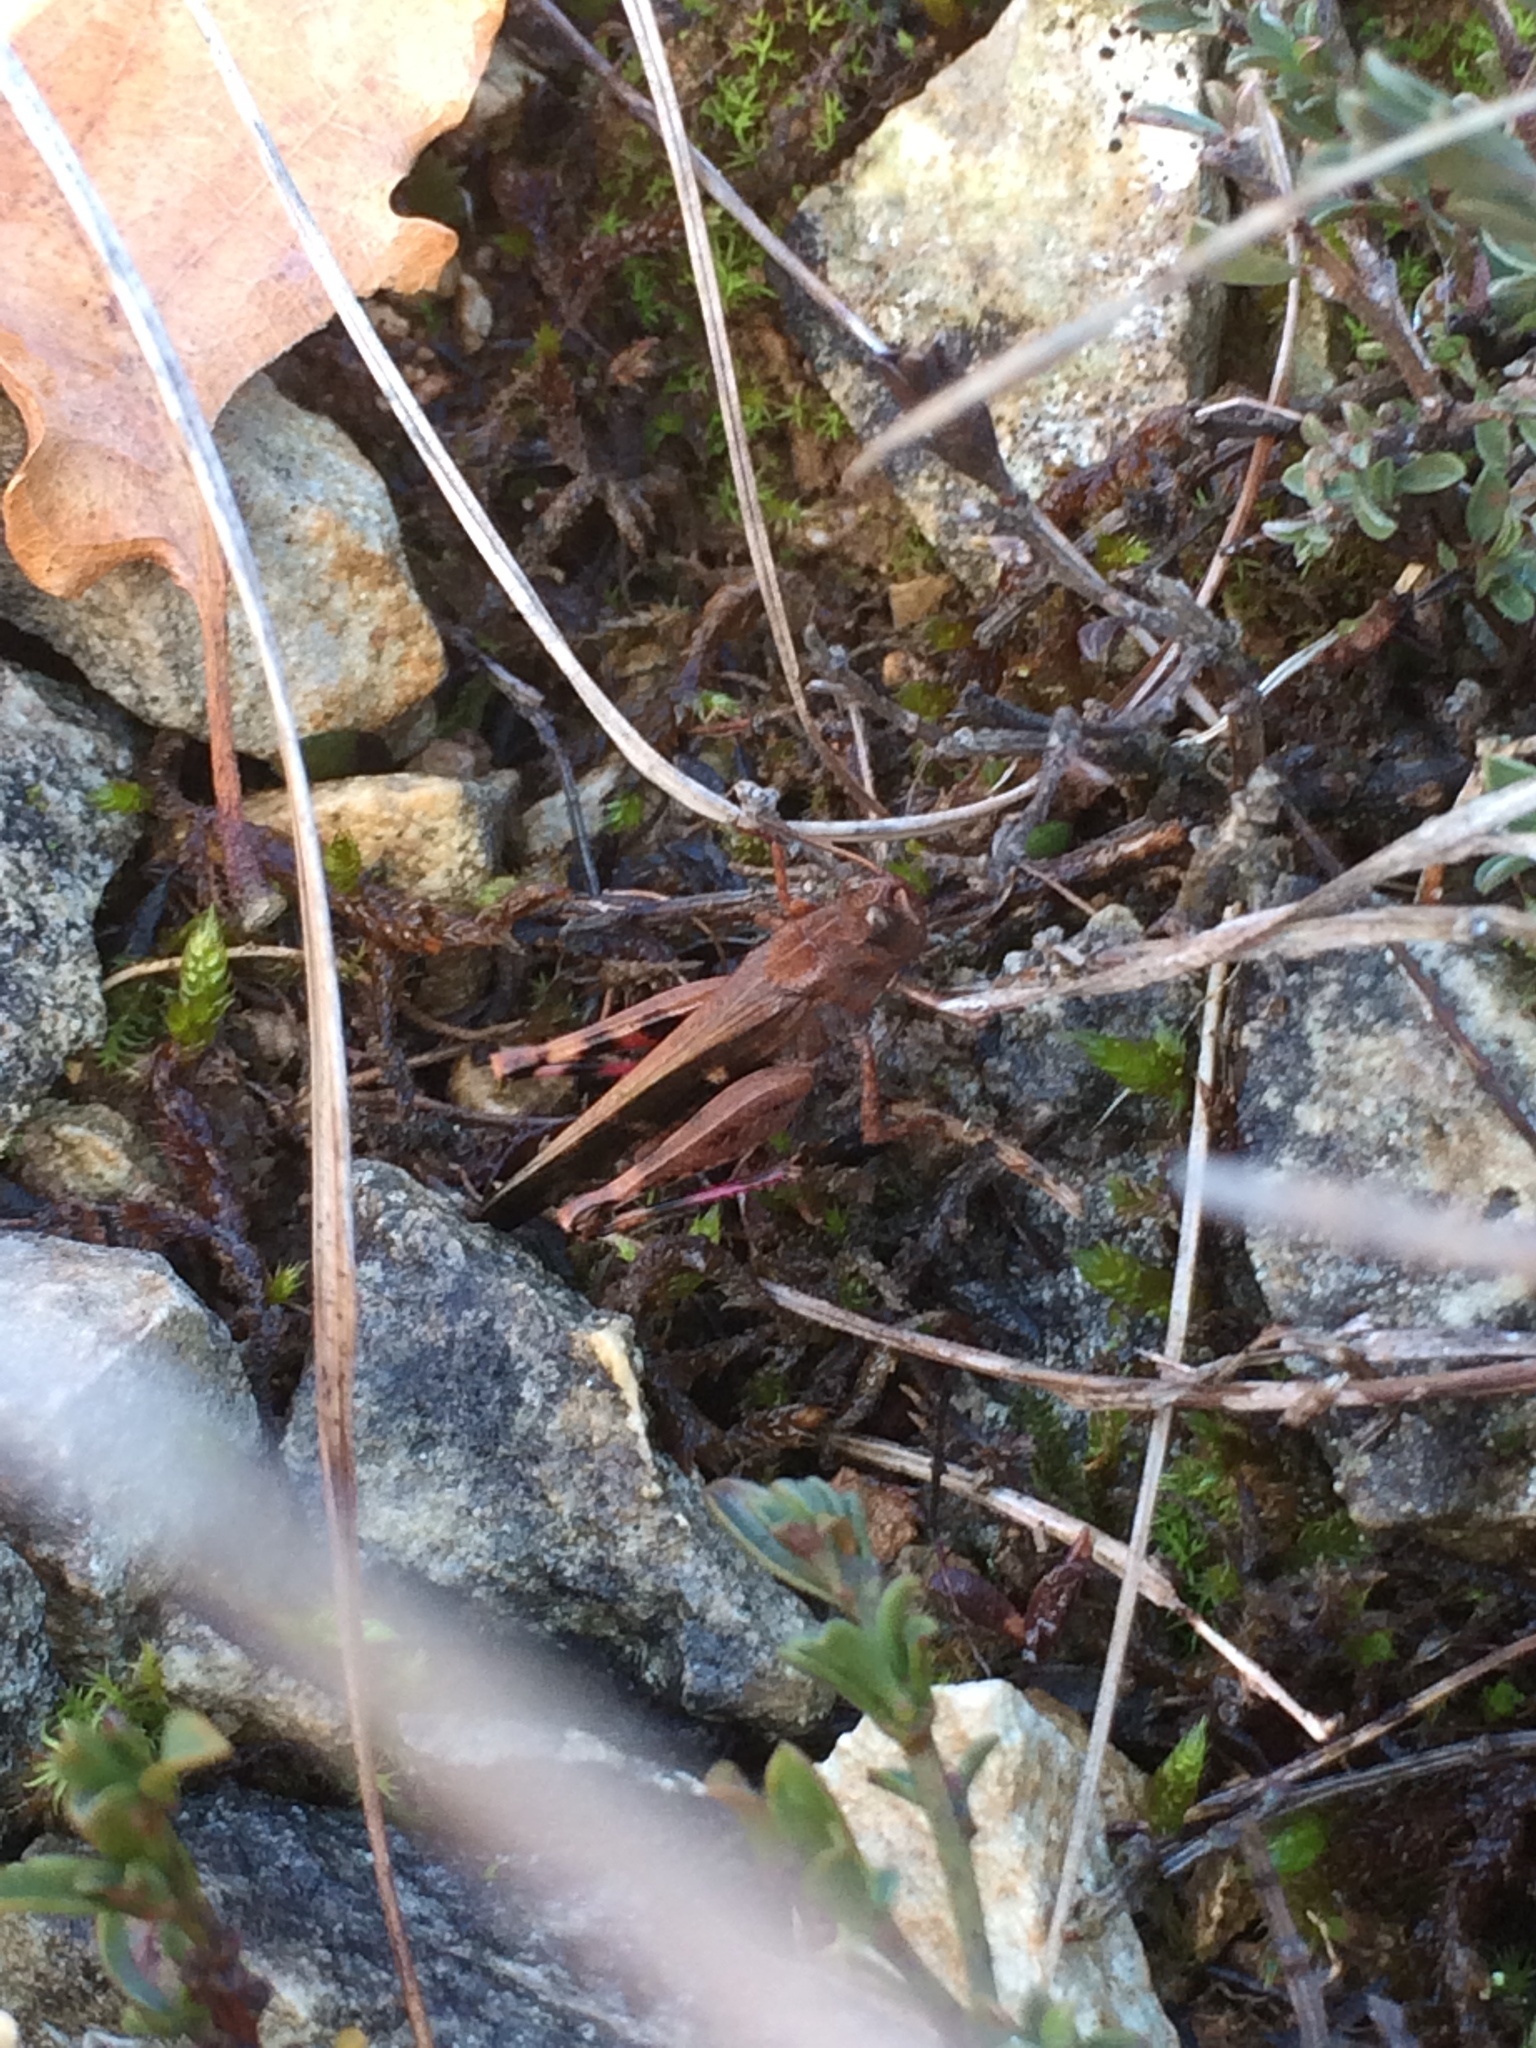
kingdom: Animalia
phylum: Arthropoda
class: Insecta
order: Orthoptera
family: Acrididae
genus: Aiolopus
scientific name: Aiolopus strepens
